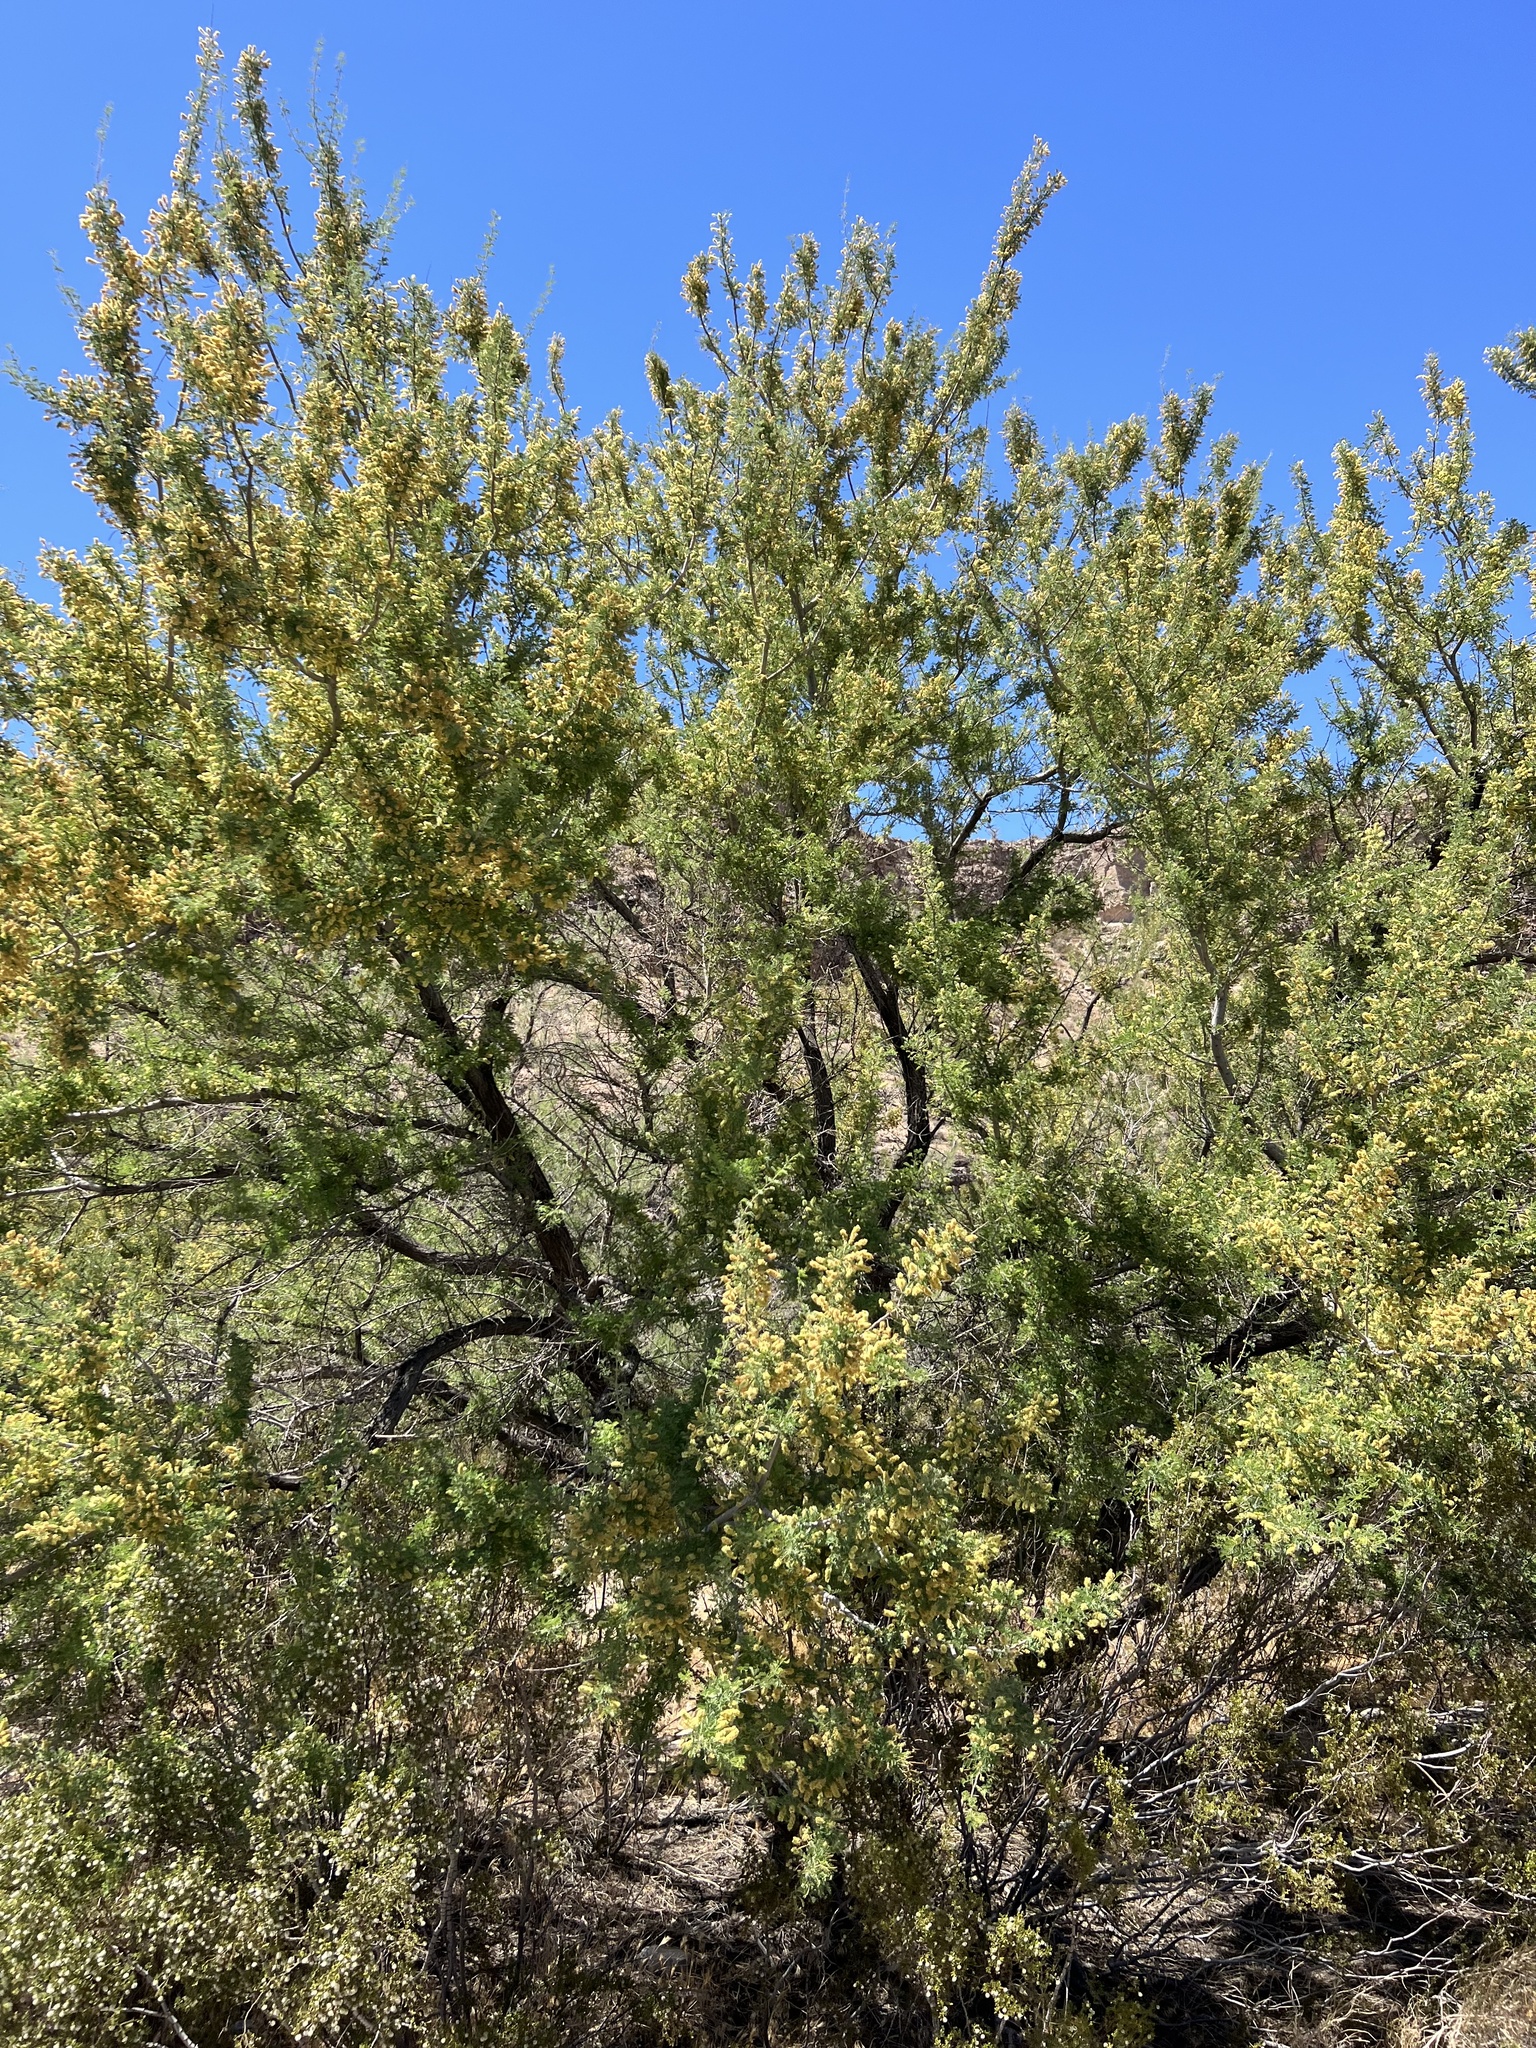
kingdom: Plantae
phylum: Tracheophyta
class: Magnoliopsida
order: Fabales
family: Fabaceae
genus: Senegalia
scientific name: Senegalia greggii
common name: Texas-mimosa
